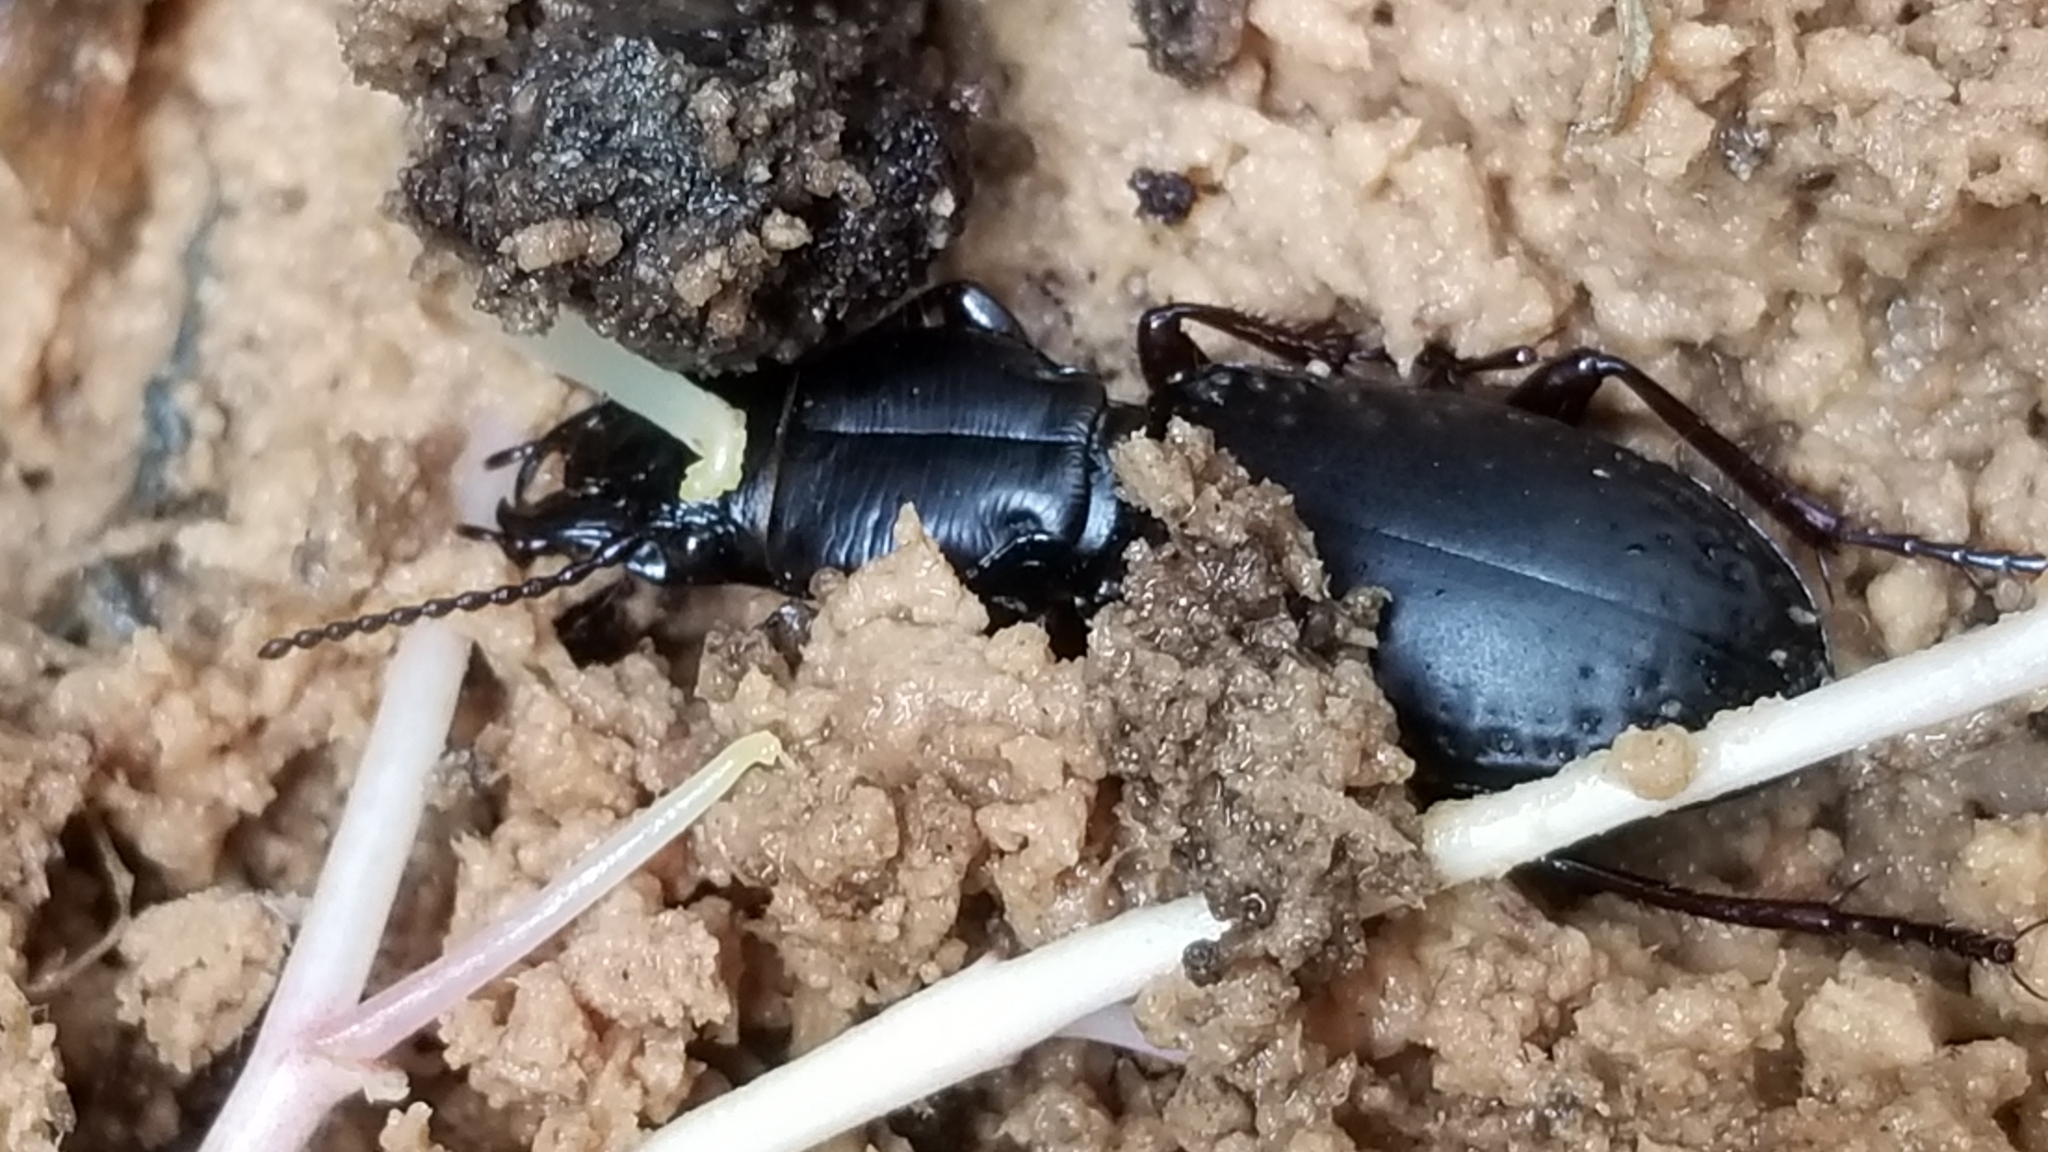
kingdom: Animalia
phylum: Arthropoda
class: Insecta
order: Coleoptera
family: Carabidae
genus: Mecodema
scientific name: Mecodema ducale
